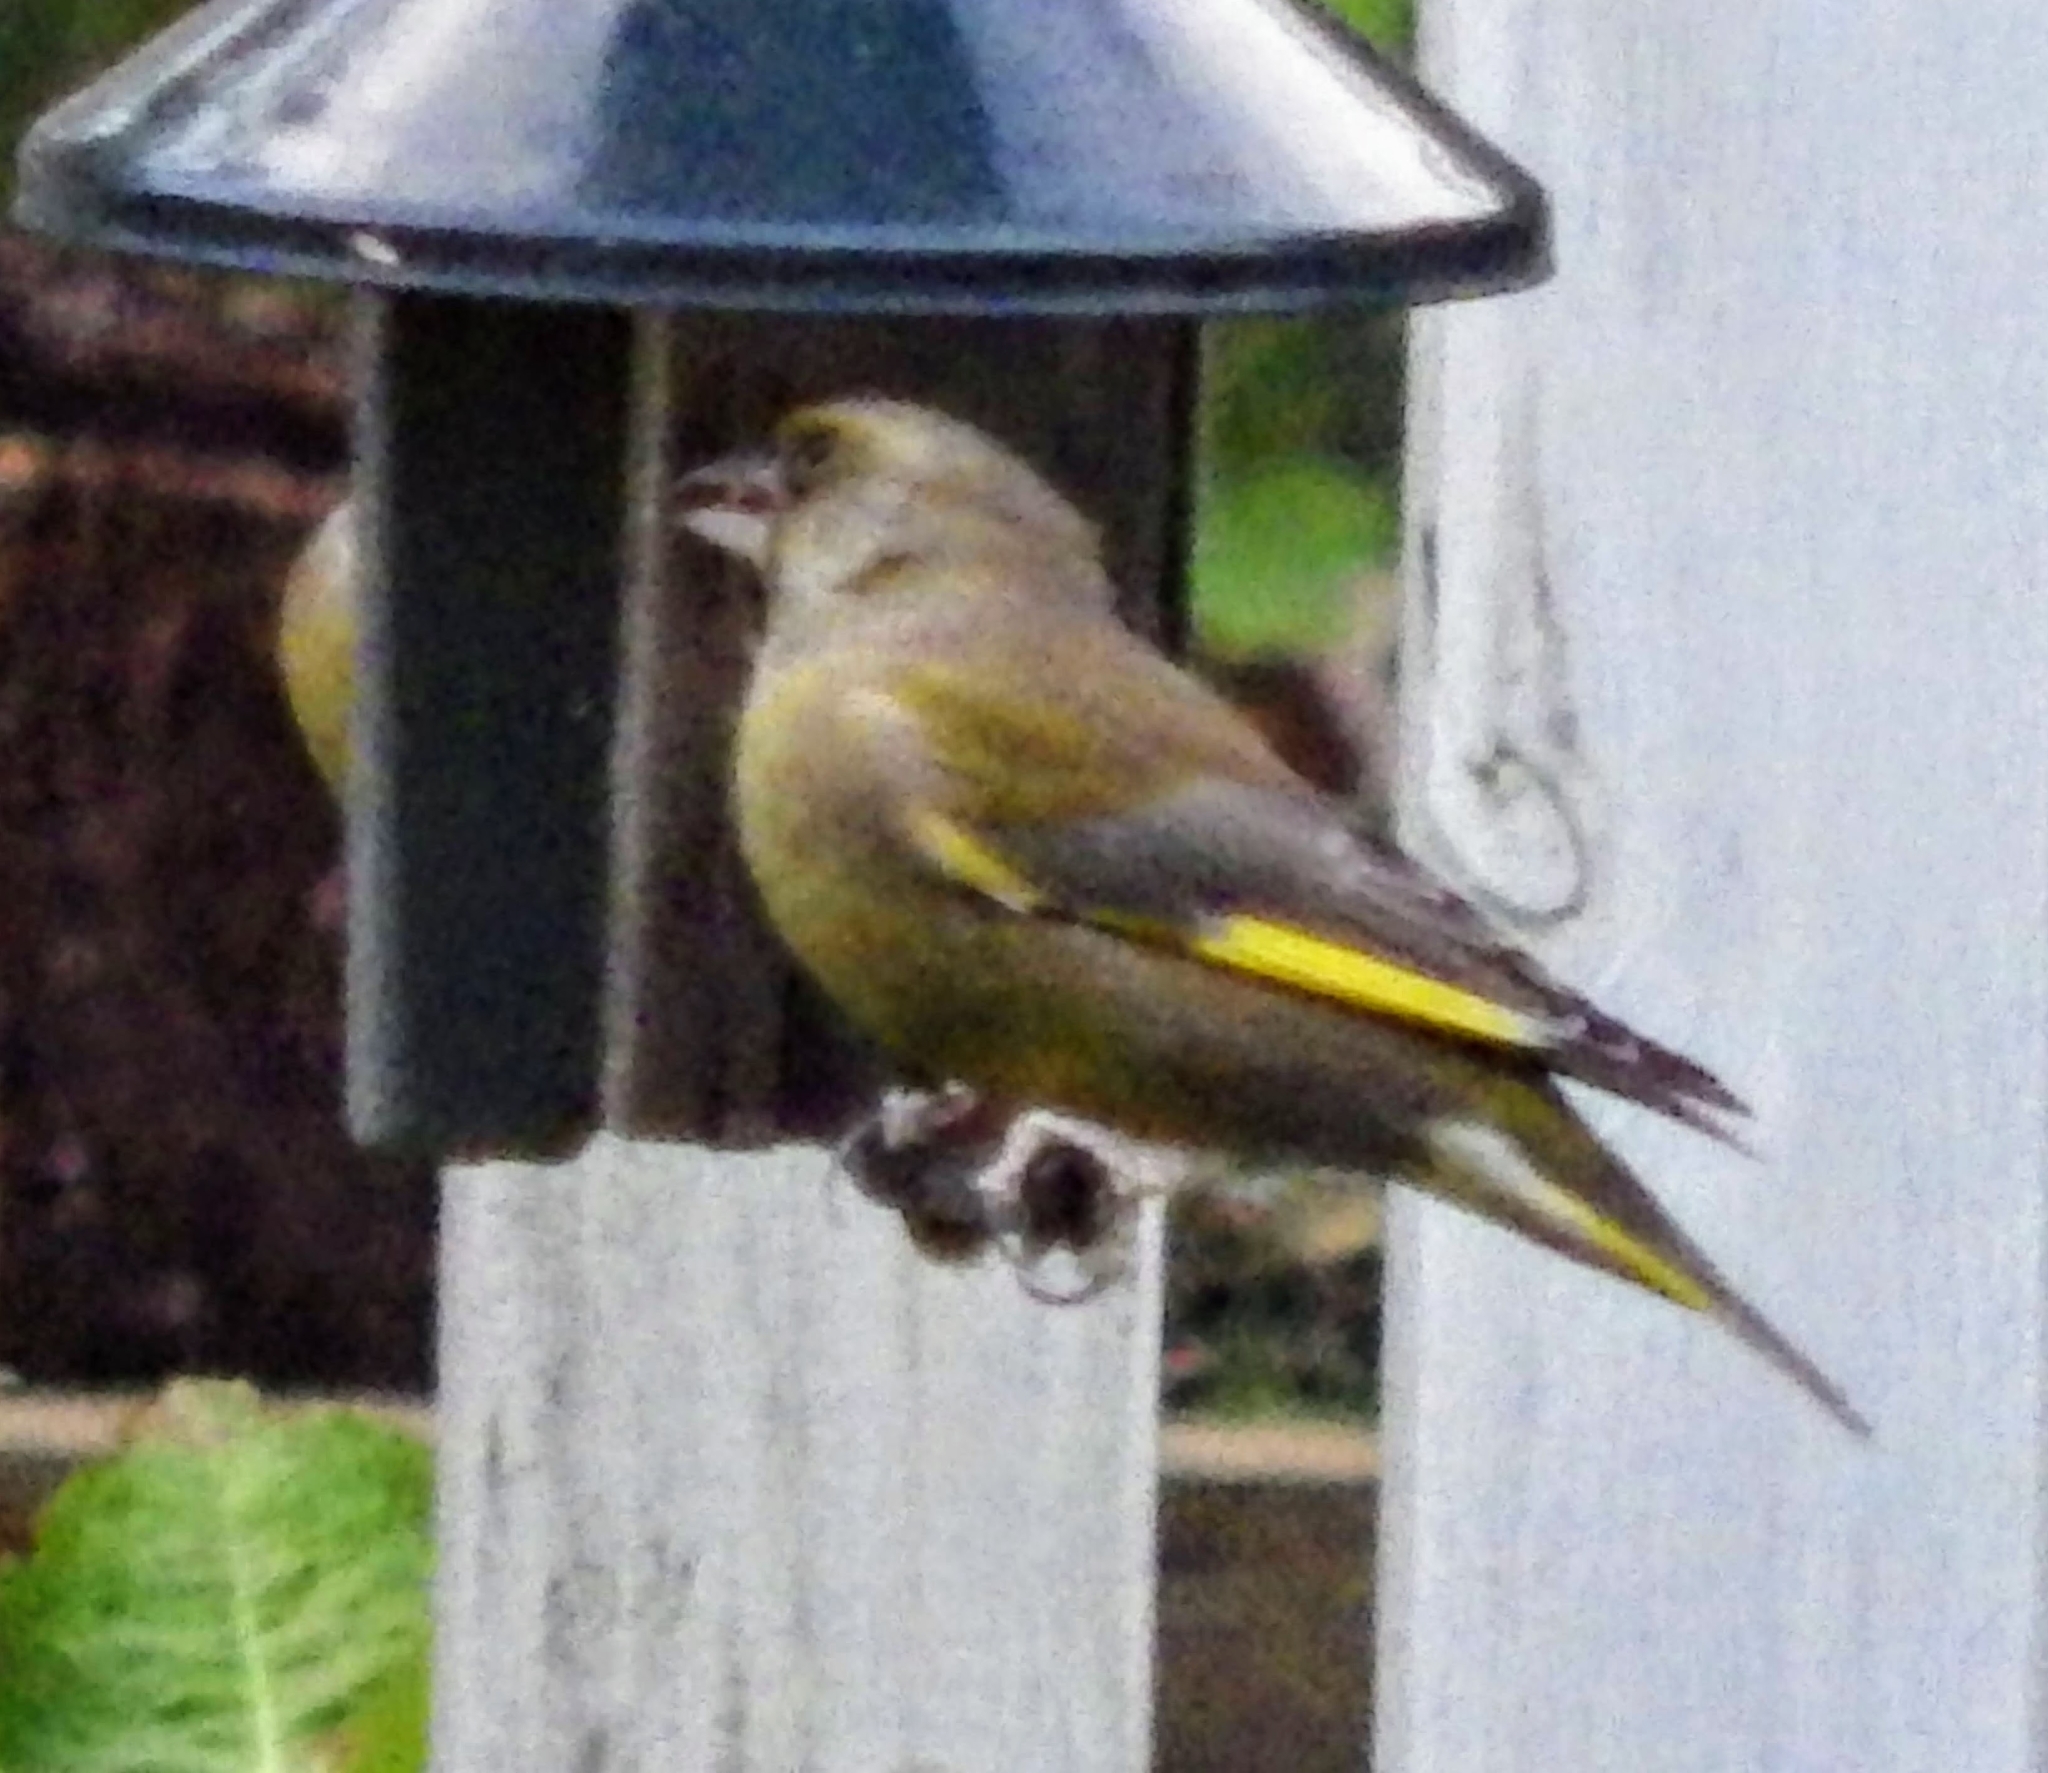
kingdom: Plantae
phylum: Tracheophyta
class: Liliopsida
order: Poales
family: Poaceae
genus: Chloris
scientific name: Chloris chloris
